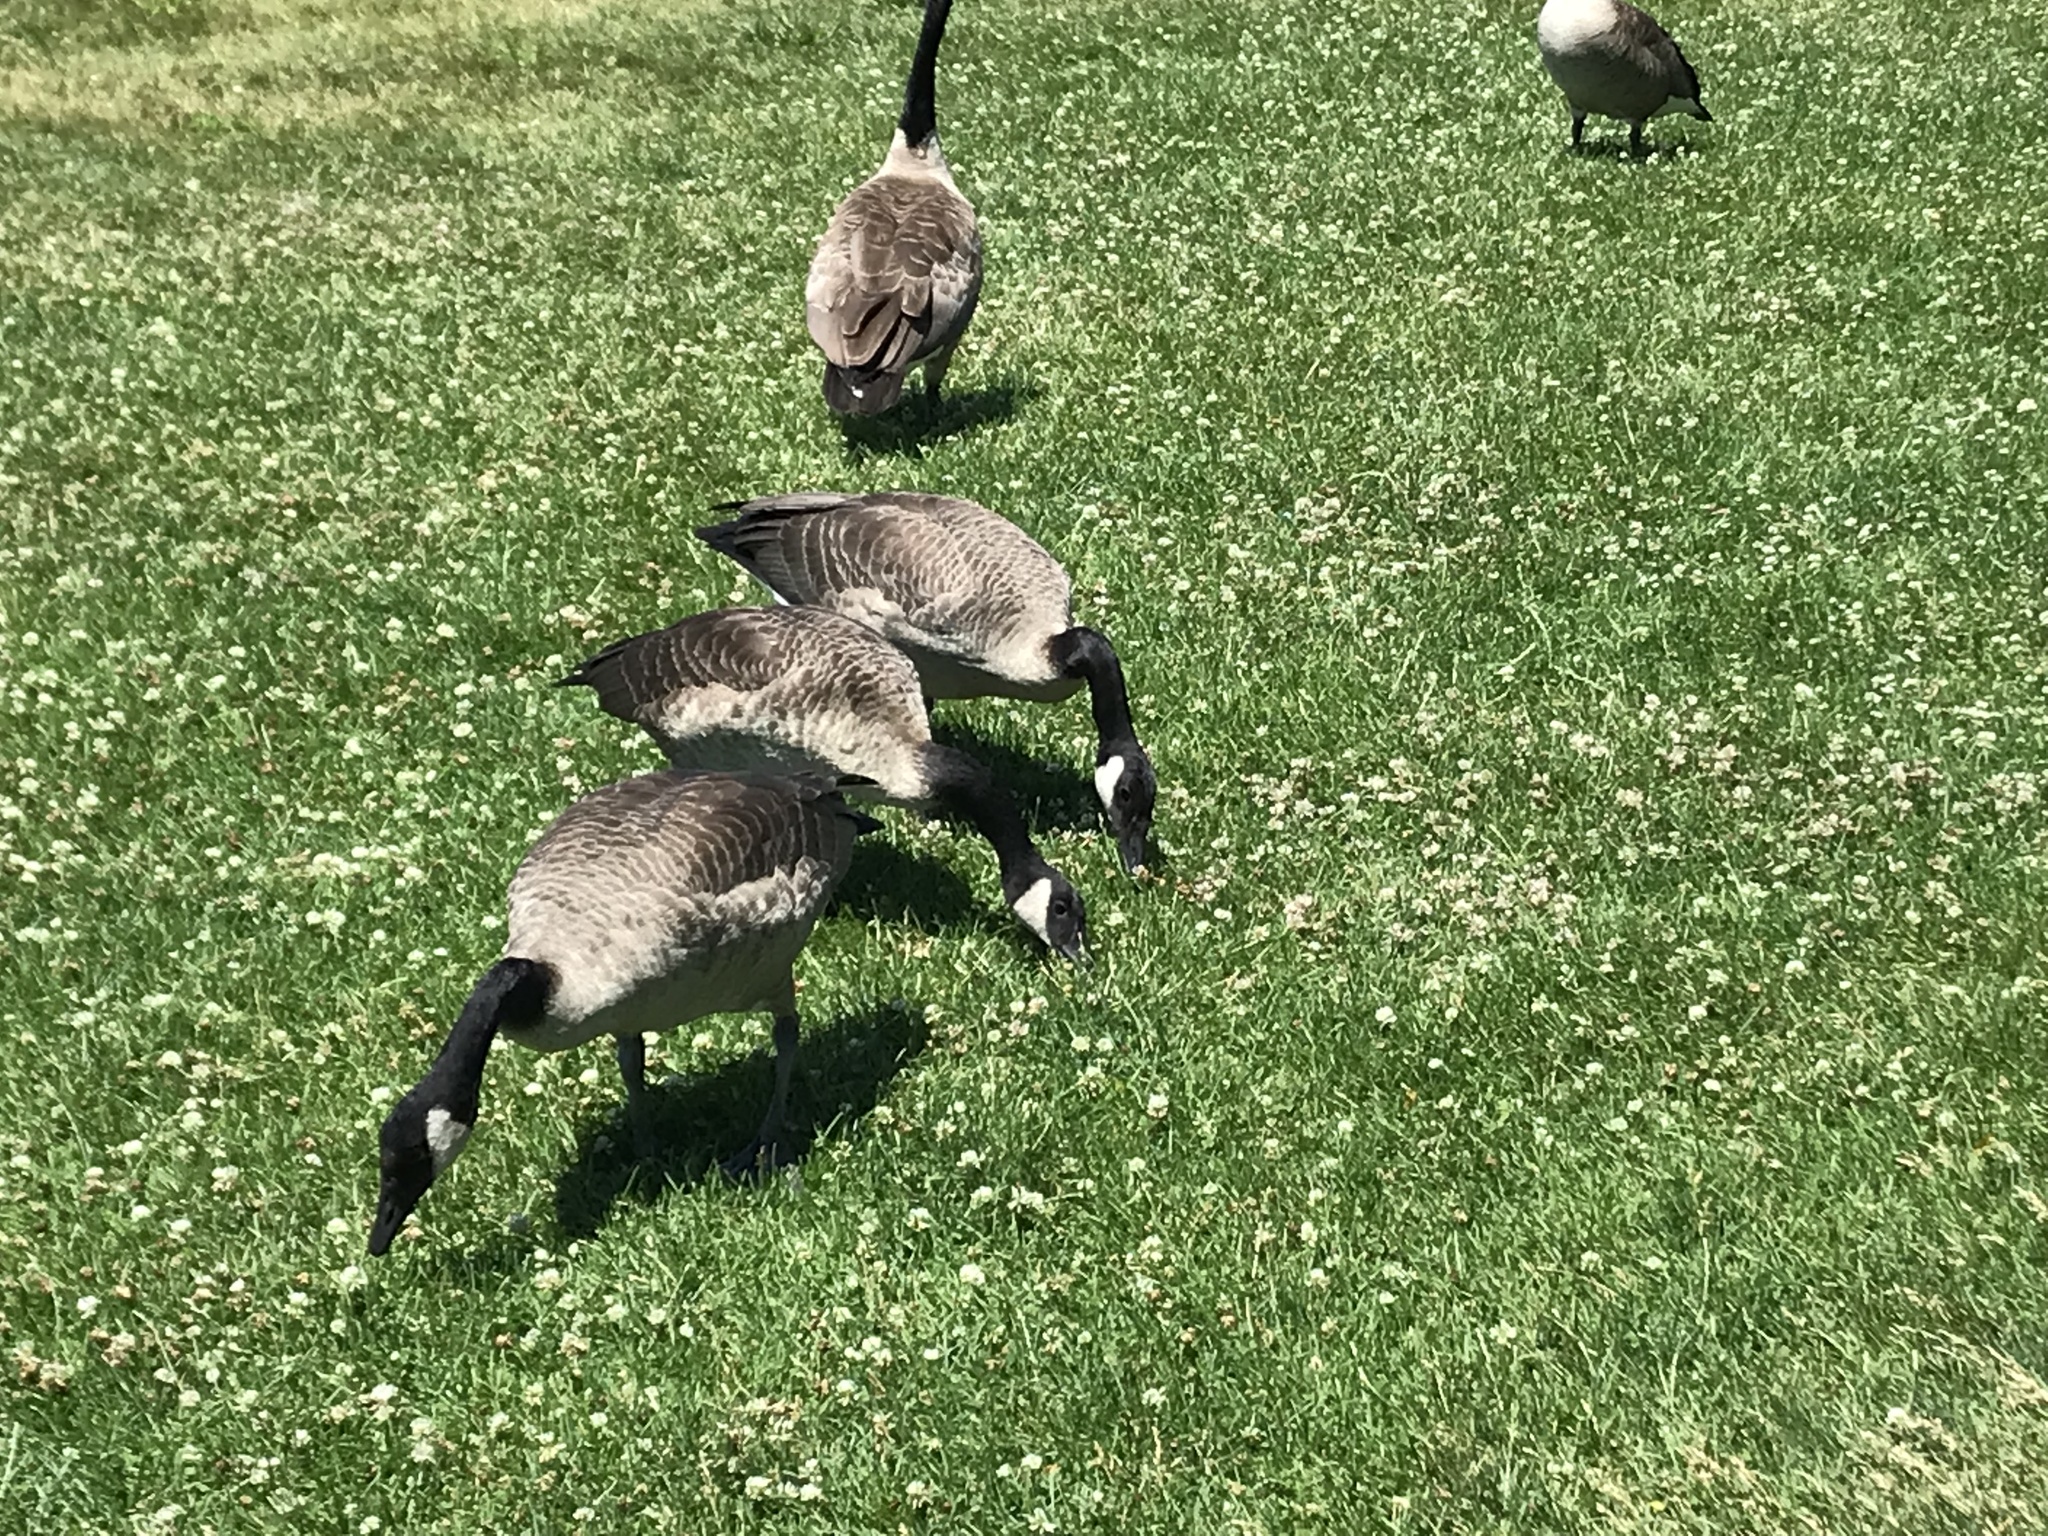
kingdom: Animalia
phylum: Chordata
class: Aves
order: Anseriformes
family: Anatidae
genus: Branta
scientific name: Branta canadensis
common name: Canada goose
